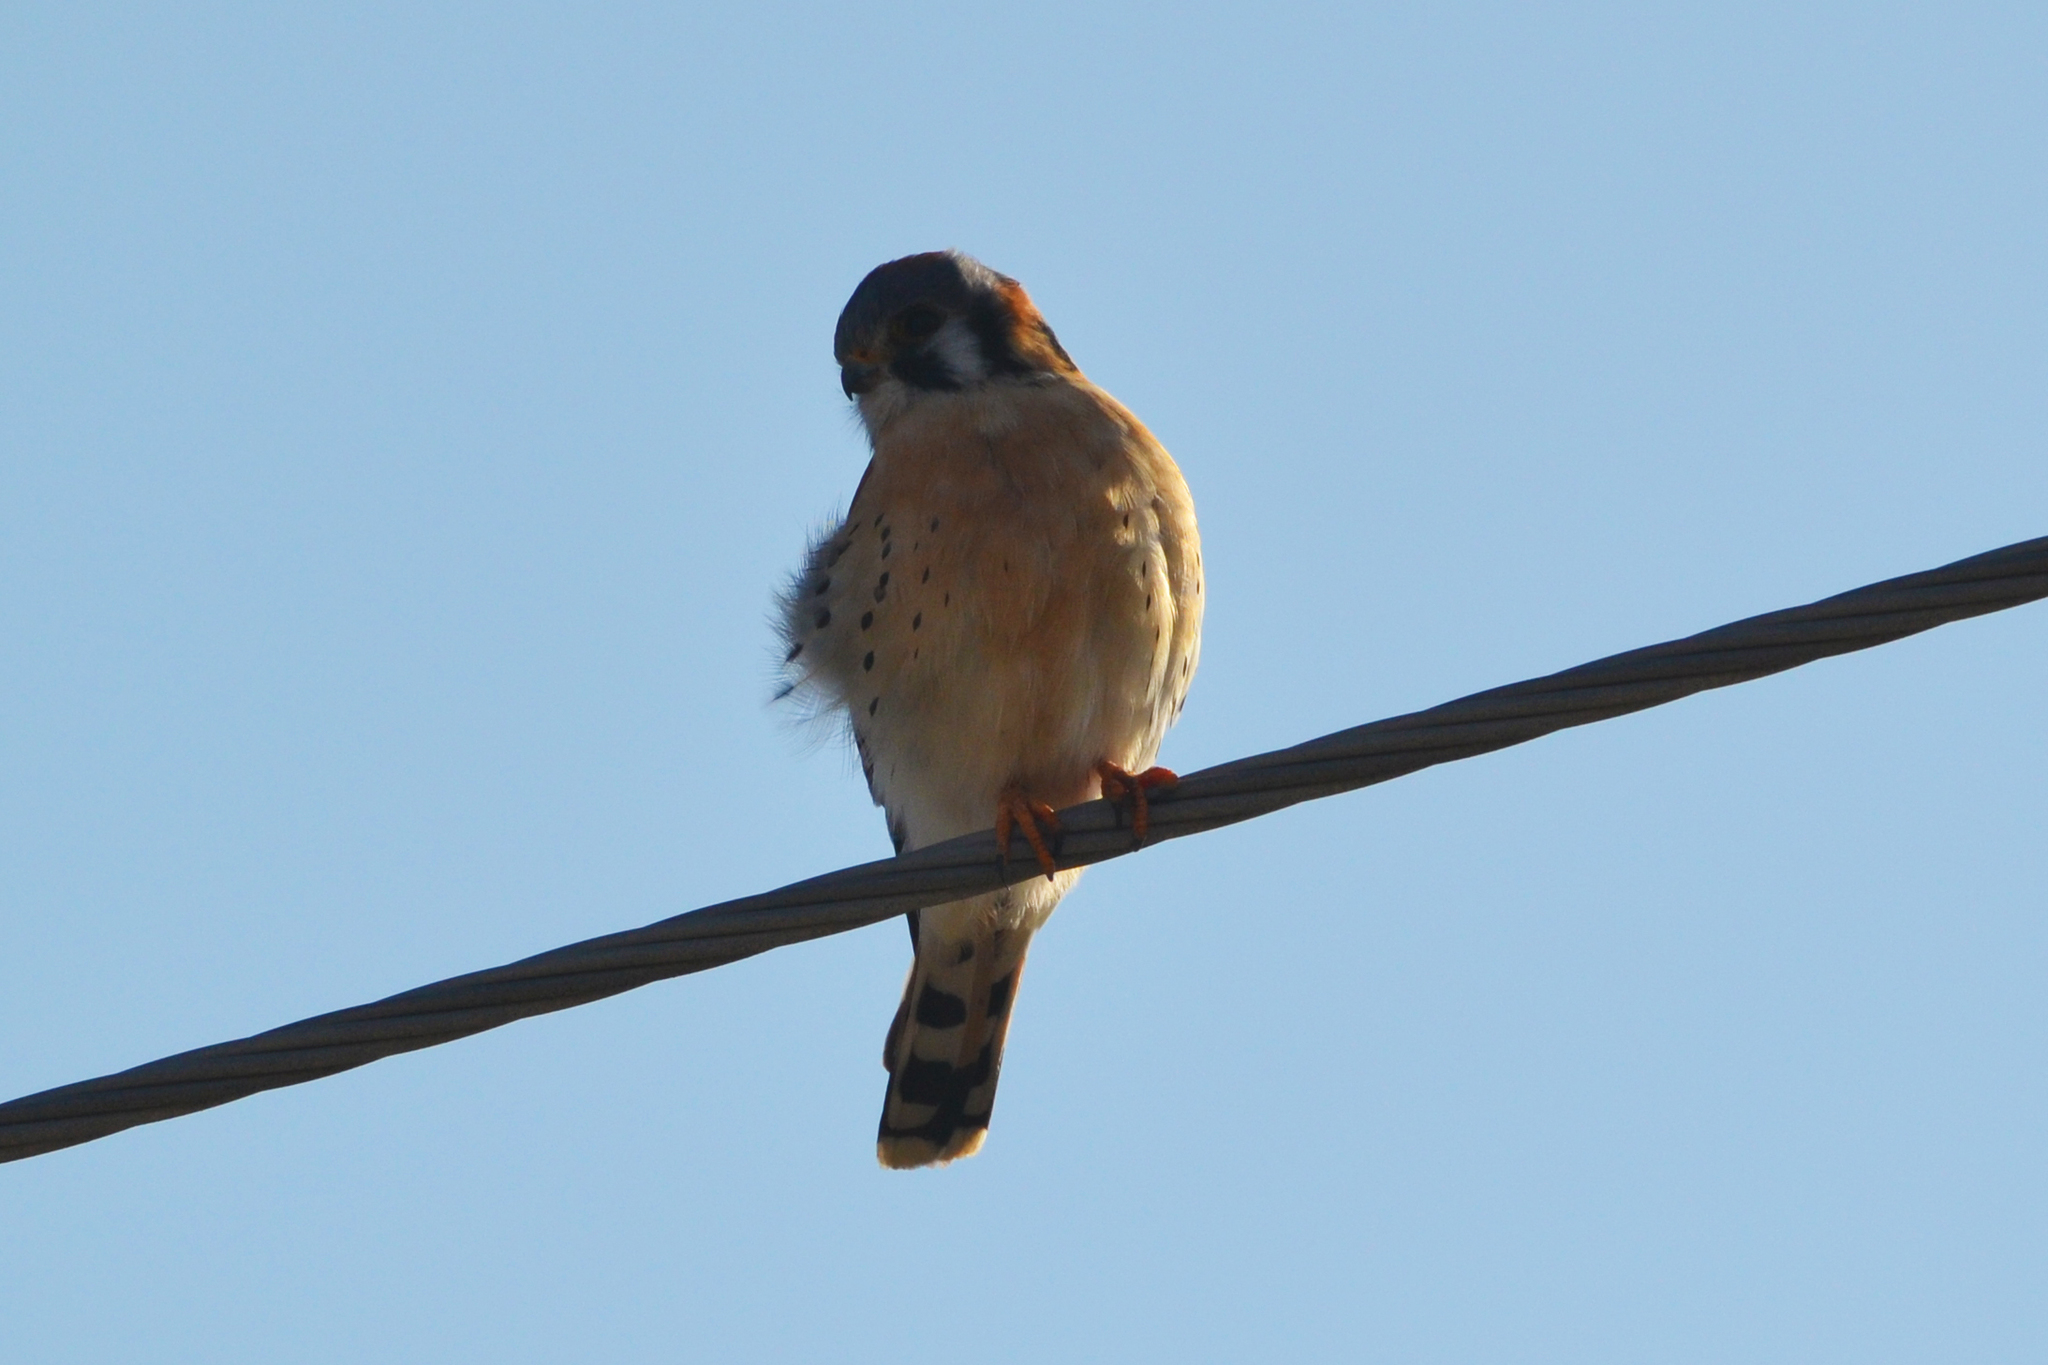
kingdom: Animalia
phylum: Chordata
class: Aves
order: Falconiformes
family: Falconidae
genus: Falco
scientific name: Falco sparverius
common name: American kestrel
